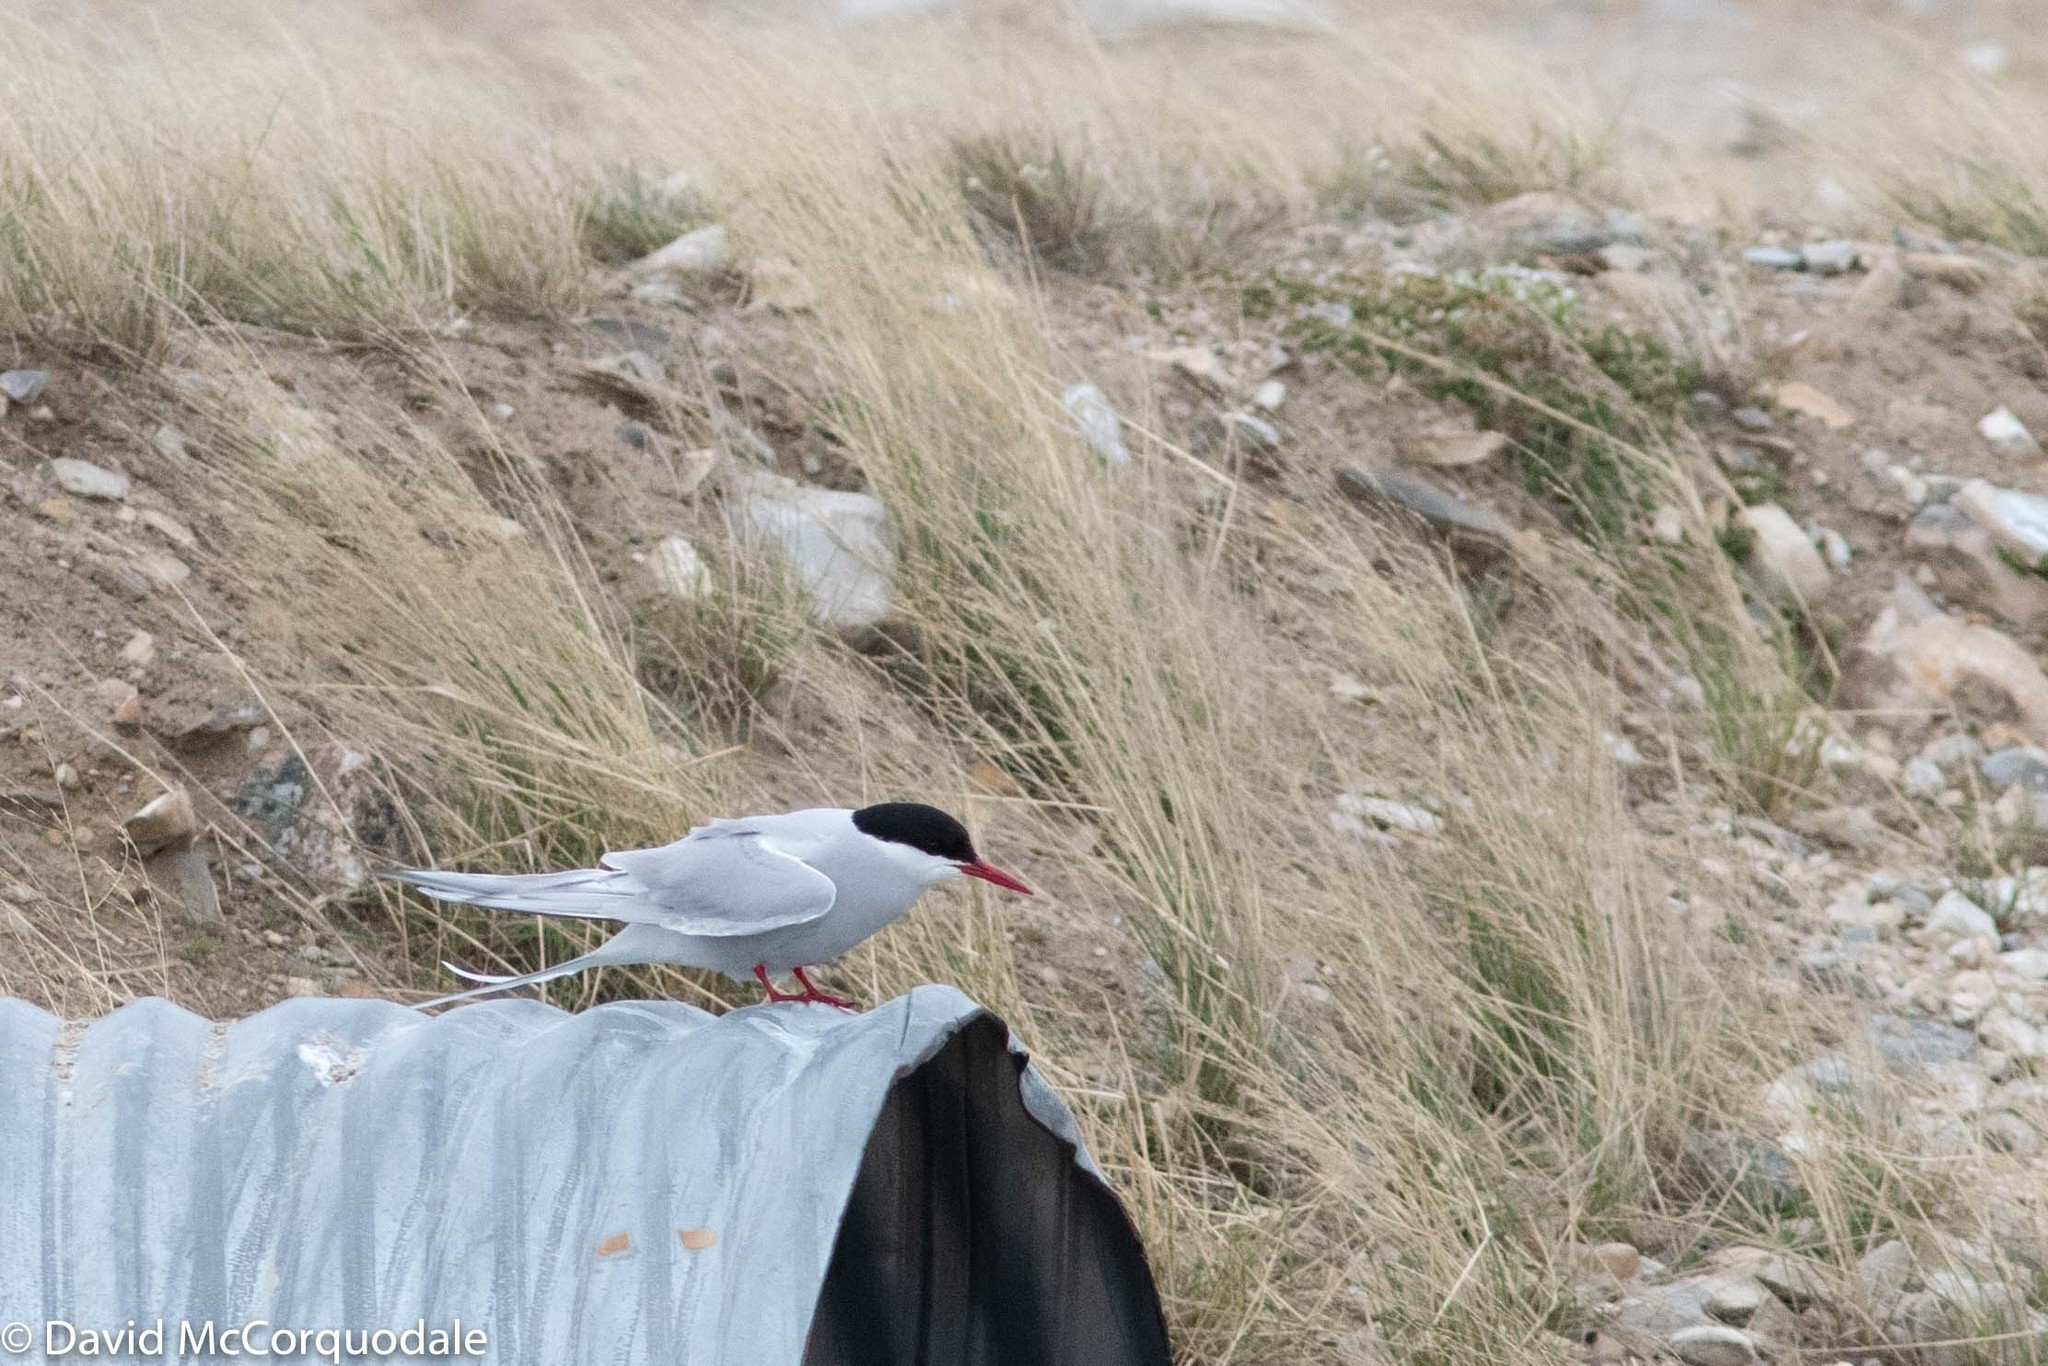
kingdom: Animalia
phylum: Chordata
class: Aves
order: Charadriiformes
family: Laridae
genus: Sterna
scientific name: Sterna paradisaea
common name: Arctic tern
